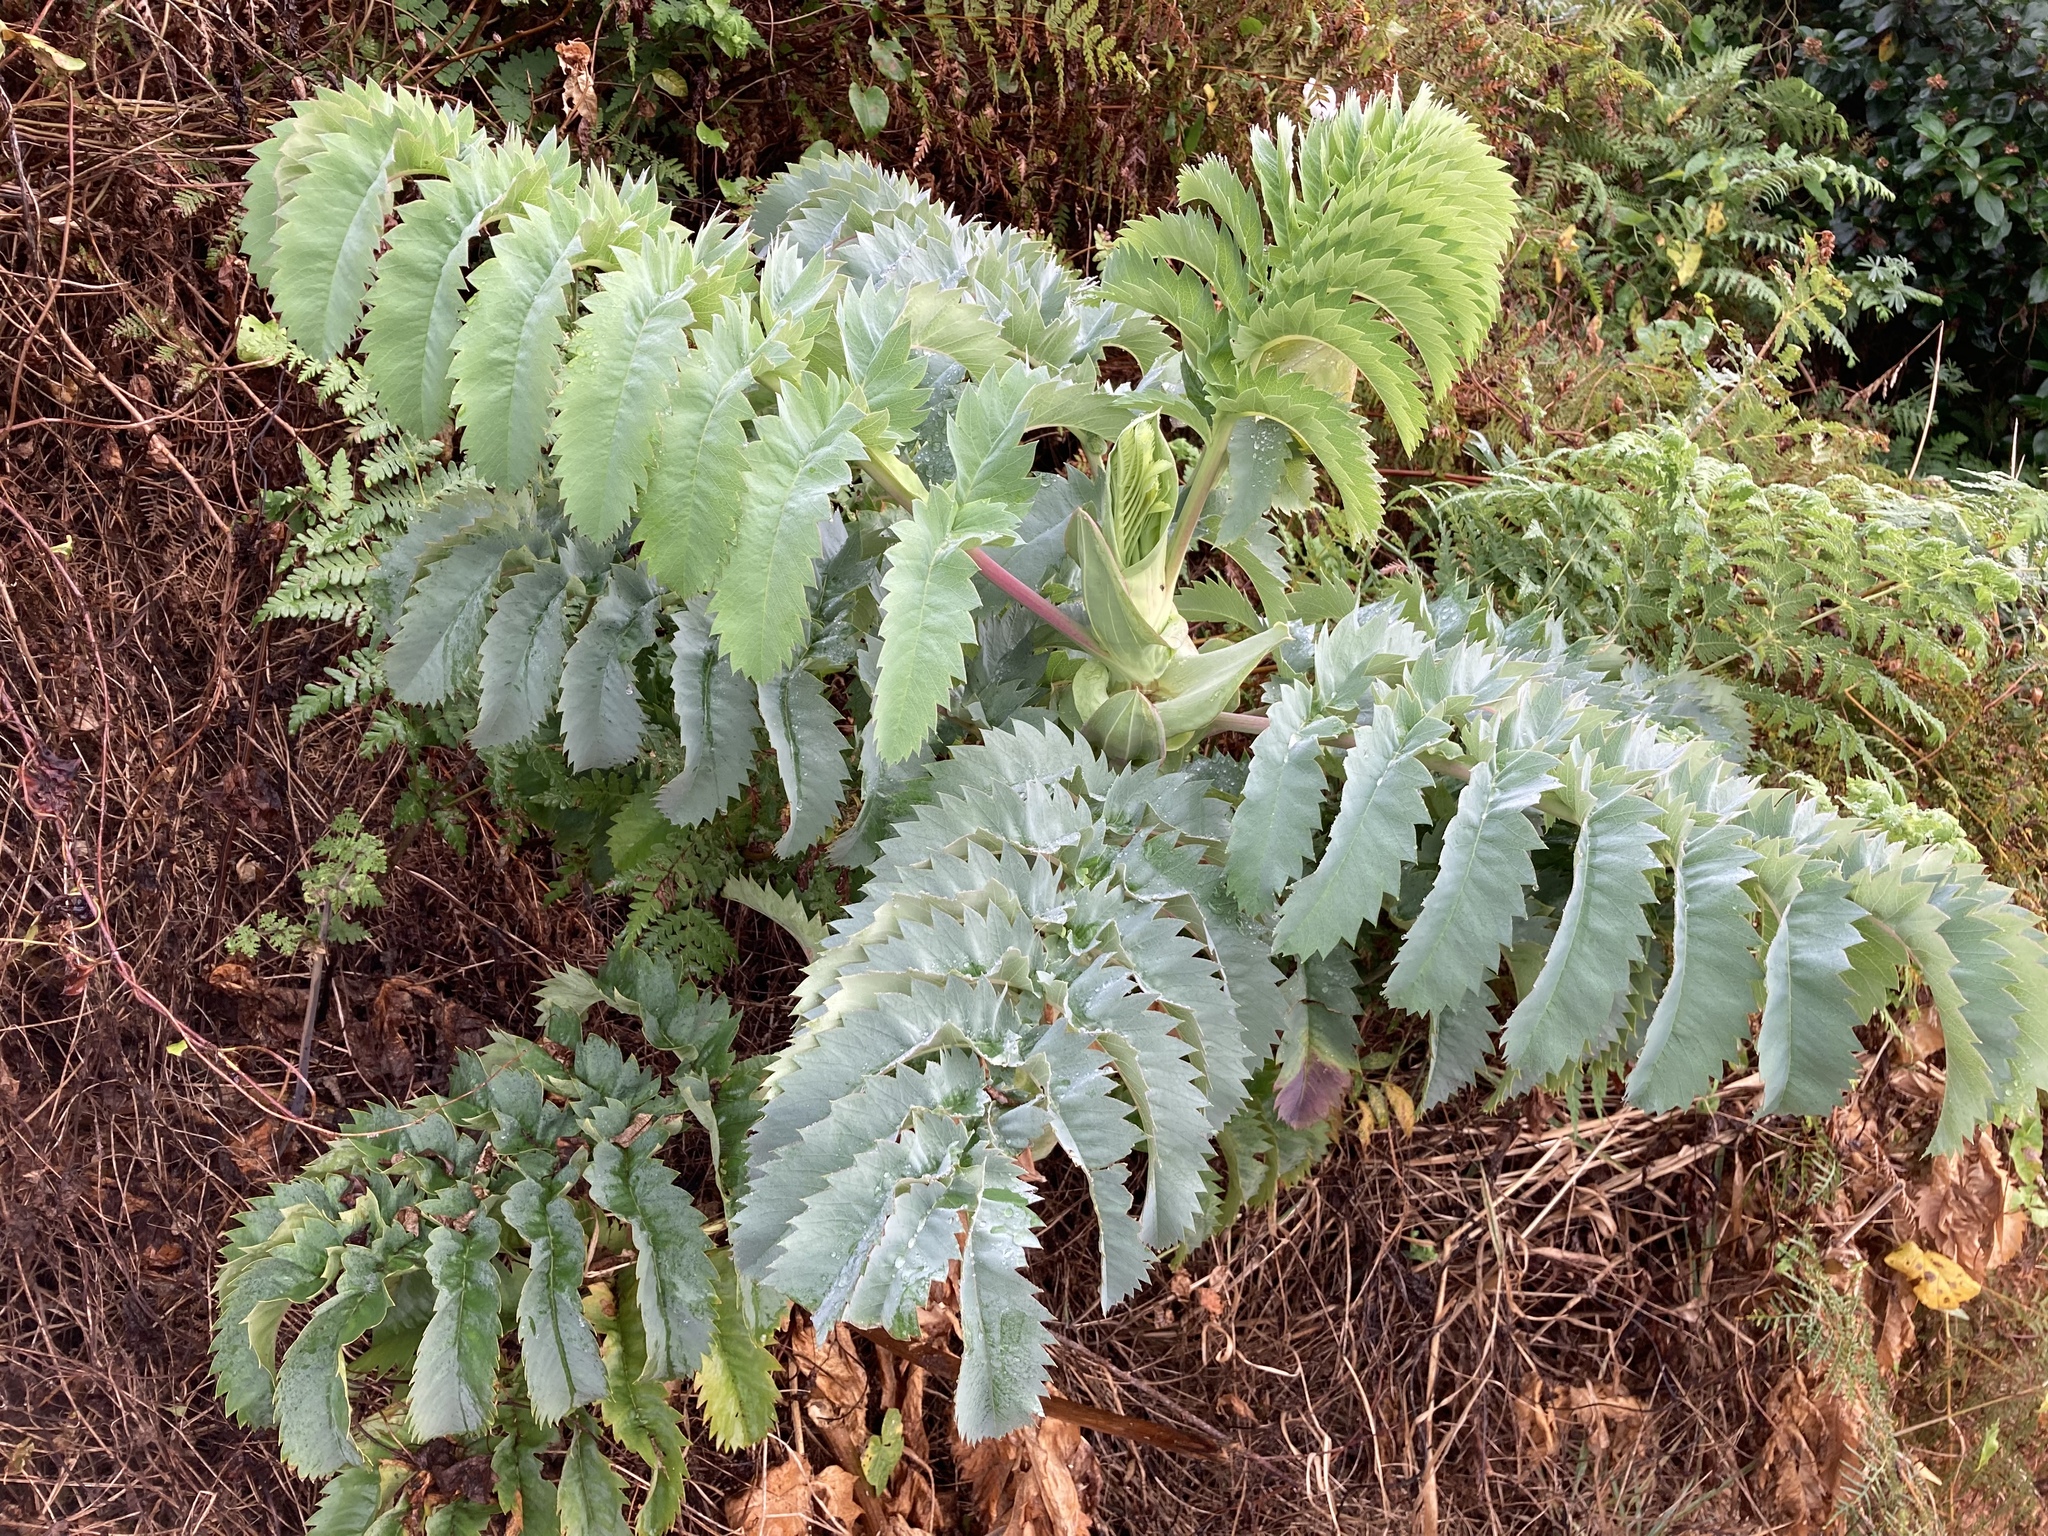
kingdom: Plantae
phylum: Tracheophyta
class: Magnoliopsida
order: Geraniales
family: Melianthaceae
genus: Melianthus
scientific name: Melianthus major
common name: Honey-flower
